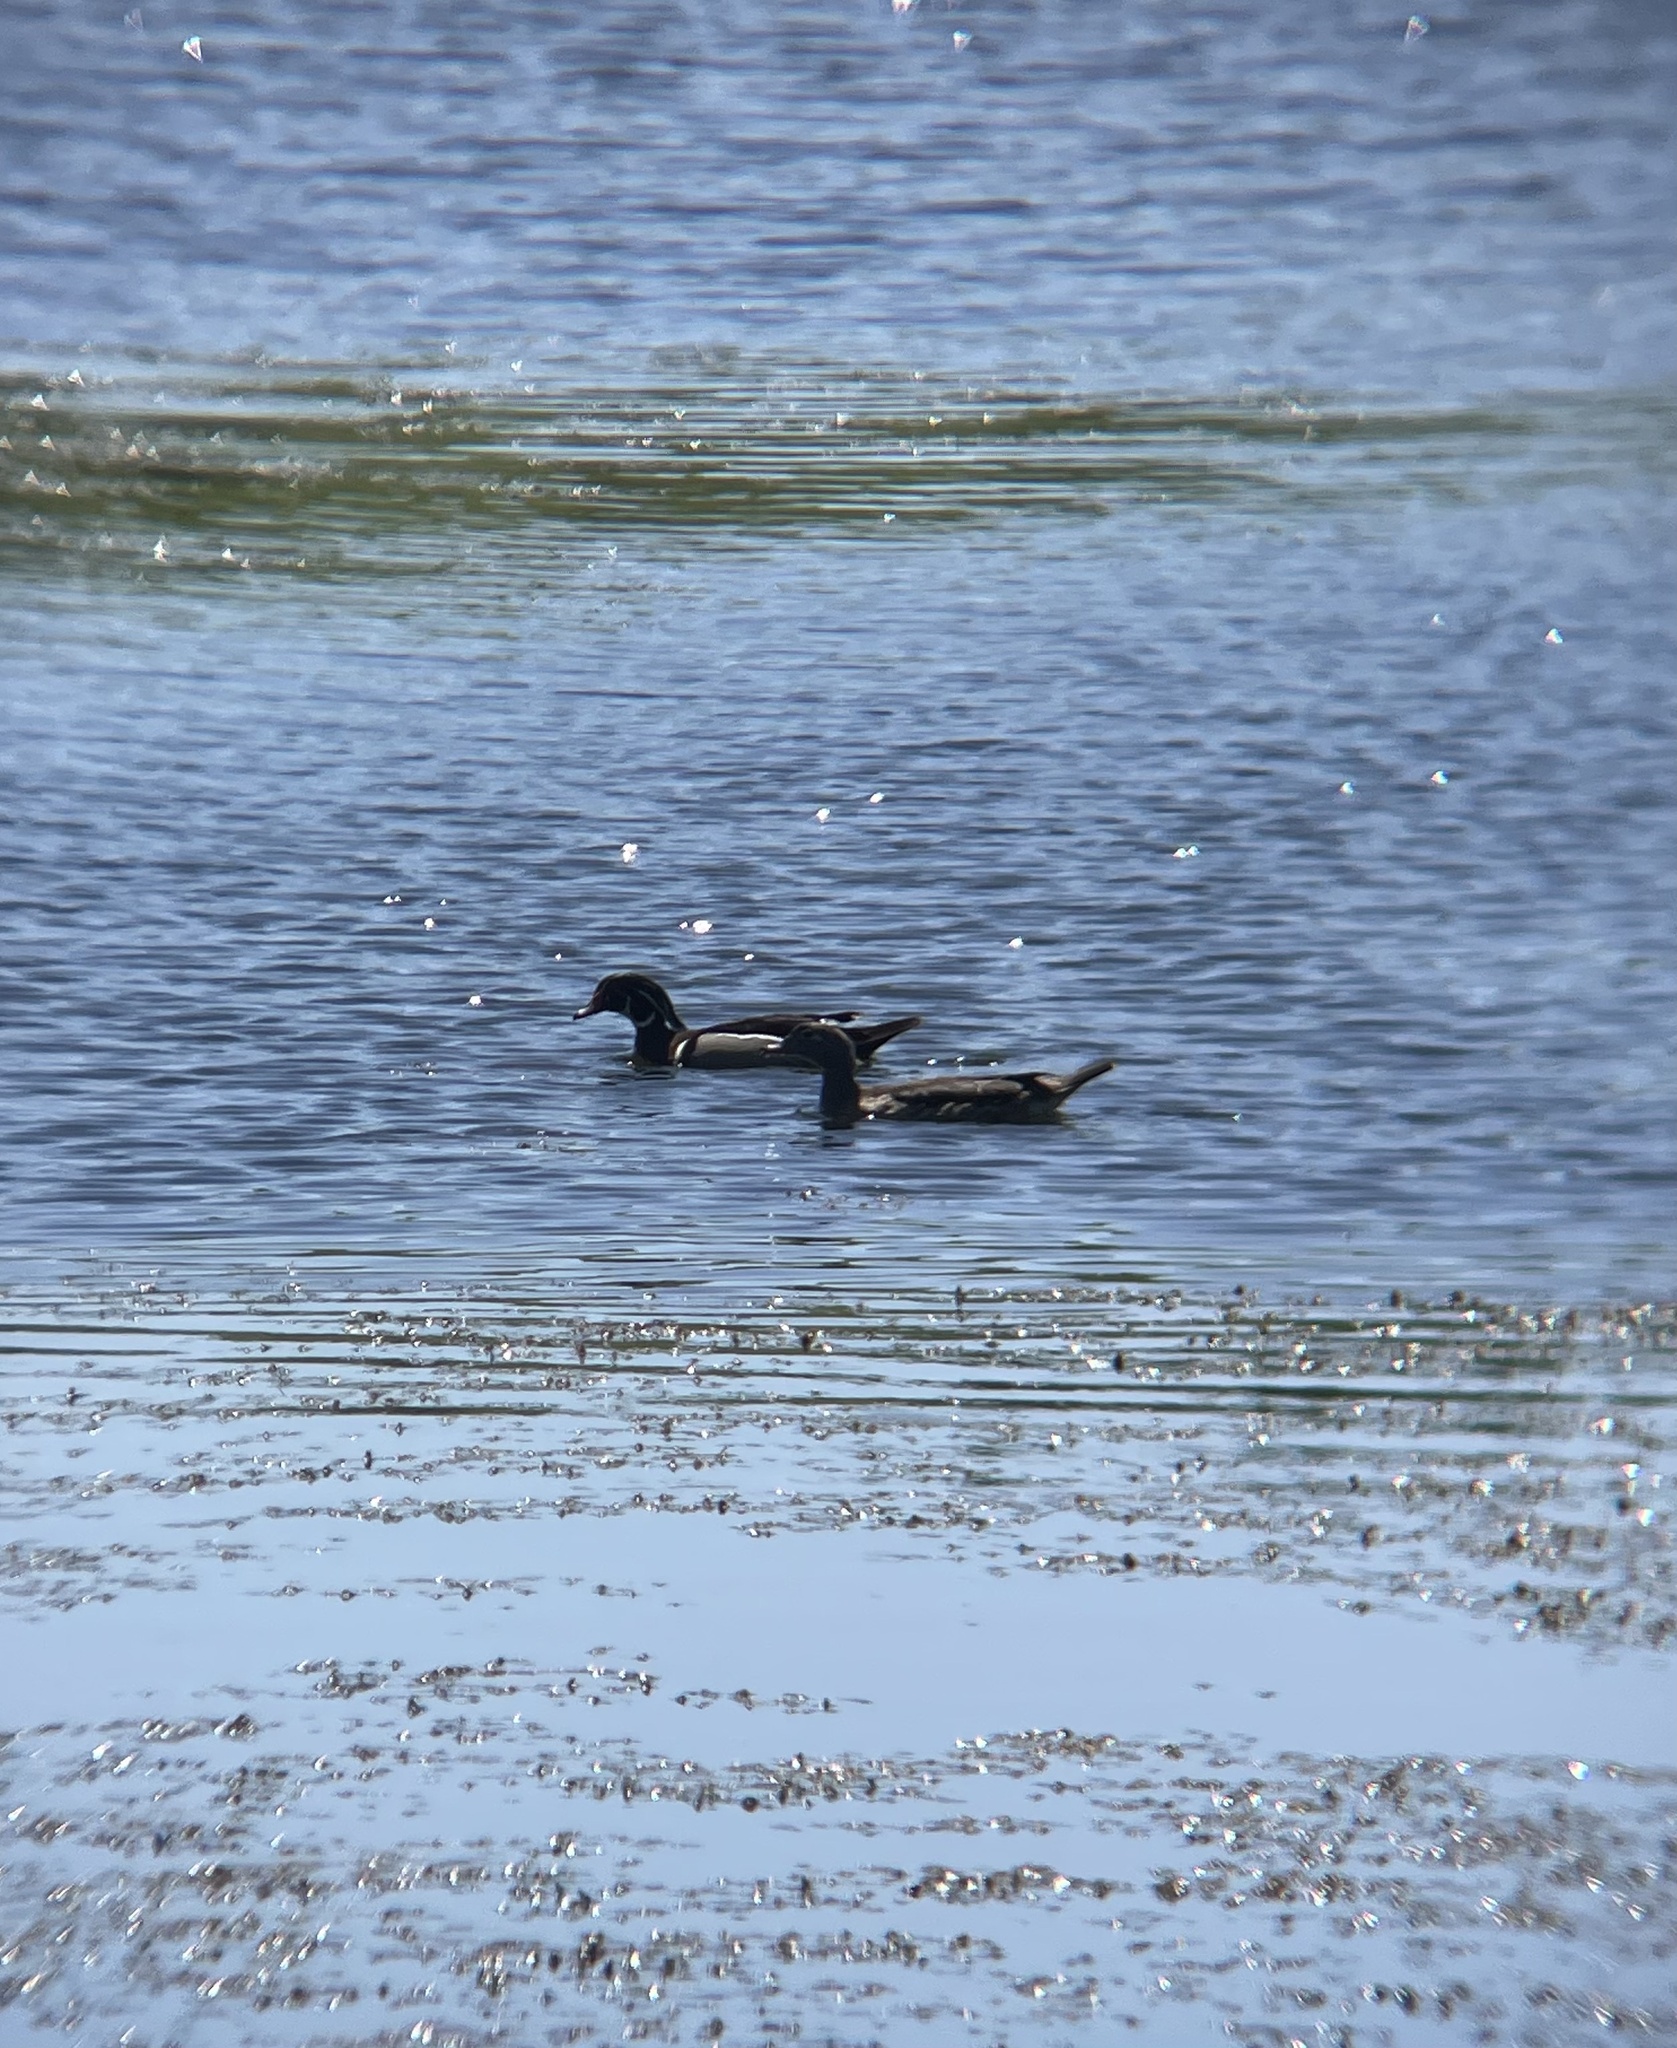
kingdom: Animalia
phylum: Chordata
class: Aves
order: Anseriformes
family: Anatidae
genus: Aix
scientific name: Aix sponsa
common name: Wood duck
